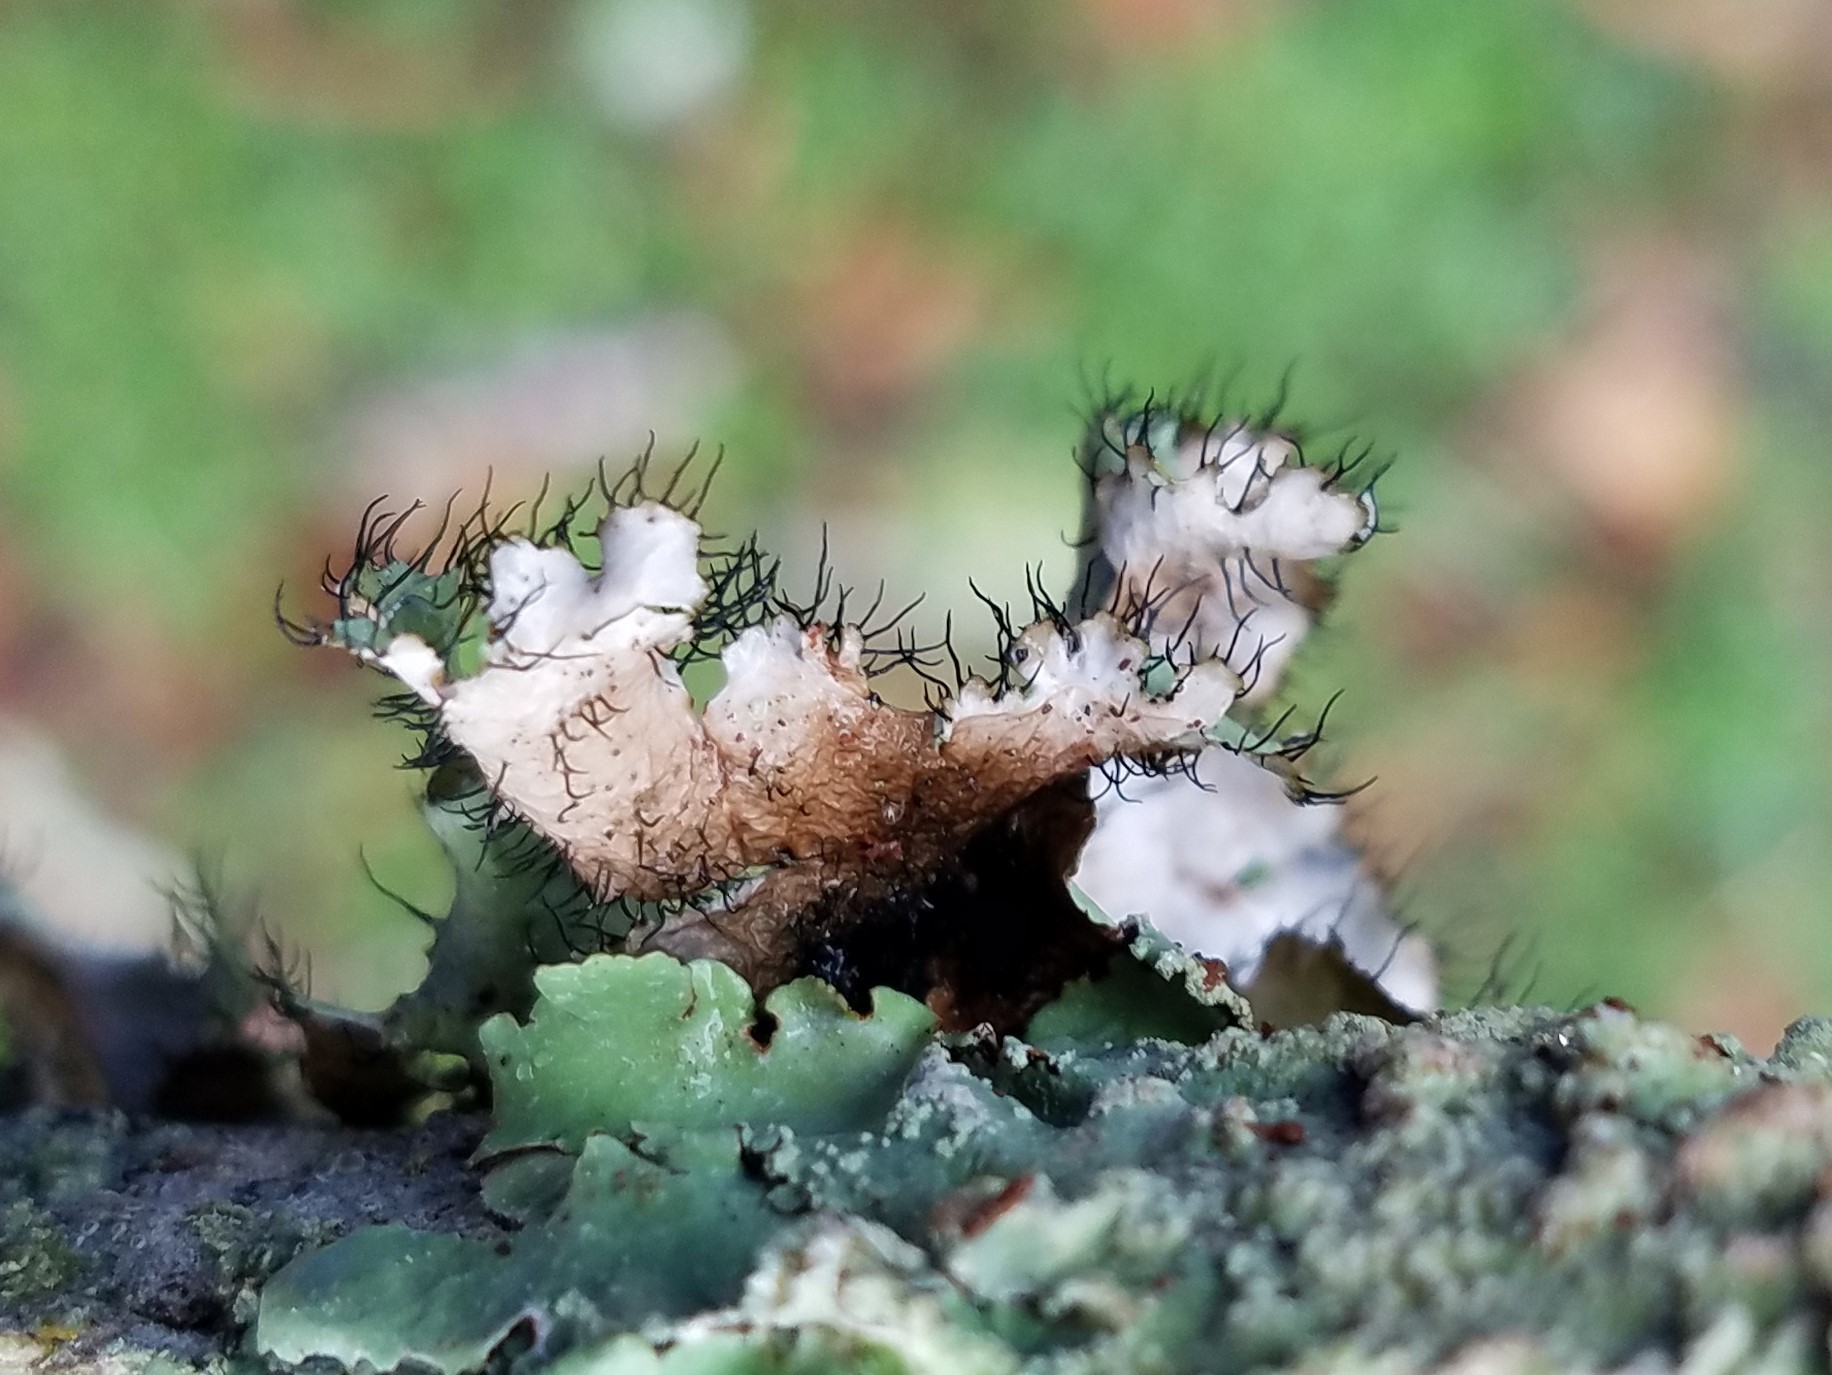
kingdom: Fungi
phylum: Ascomycota
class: Lecanoromycetes
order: Lecanorales
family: Parmeliaceae
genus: Parmotrema
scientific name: Parmotrema perforatum
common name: Perforated ruffle lichen
